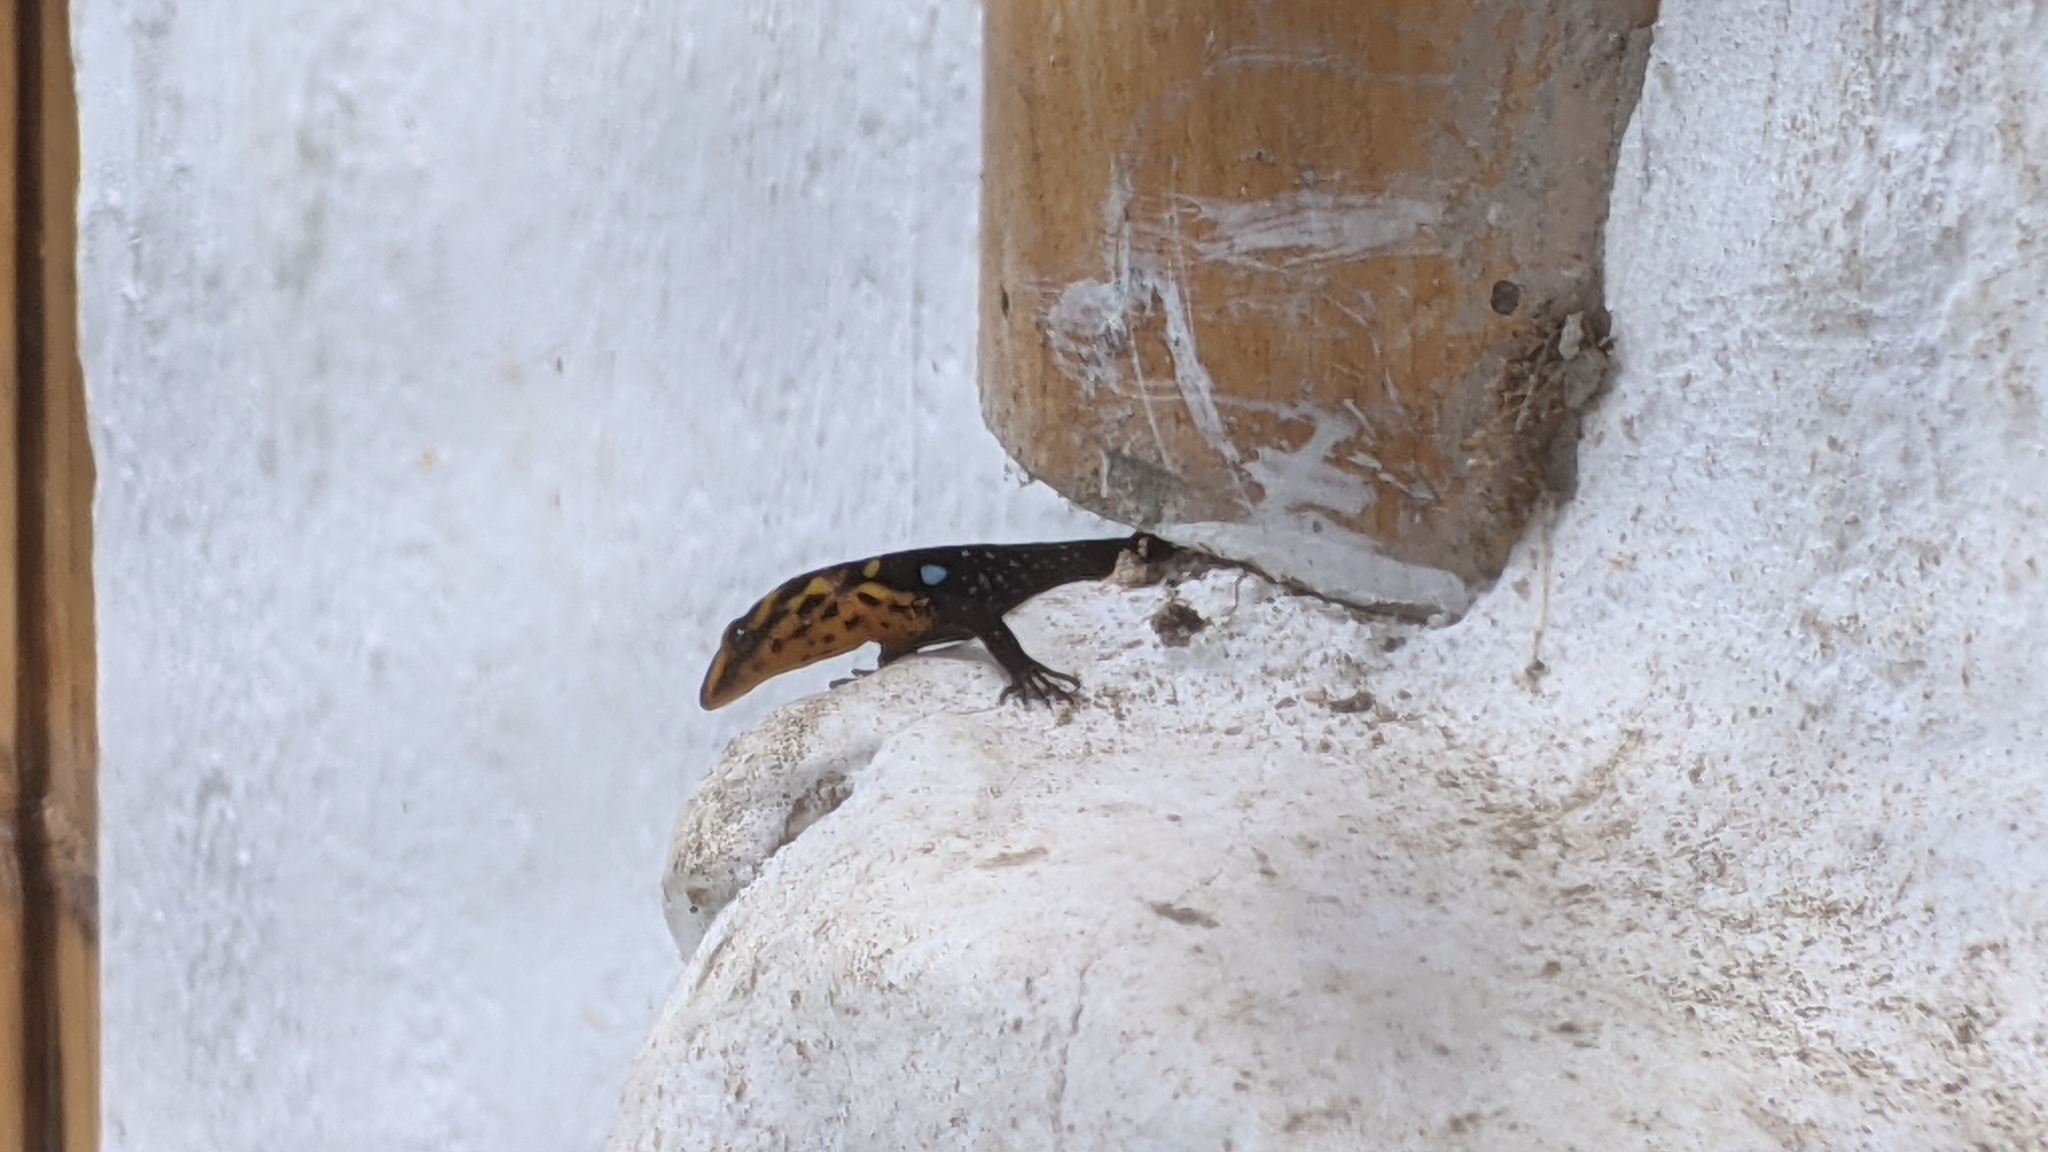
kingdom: Animalia
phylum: Chordata
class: Squamata
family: Sphaerodactylidae
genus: Gonatodes
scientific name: Gonatodes caudiscutatus
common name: Shieldhead gecko
